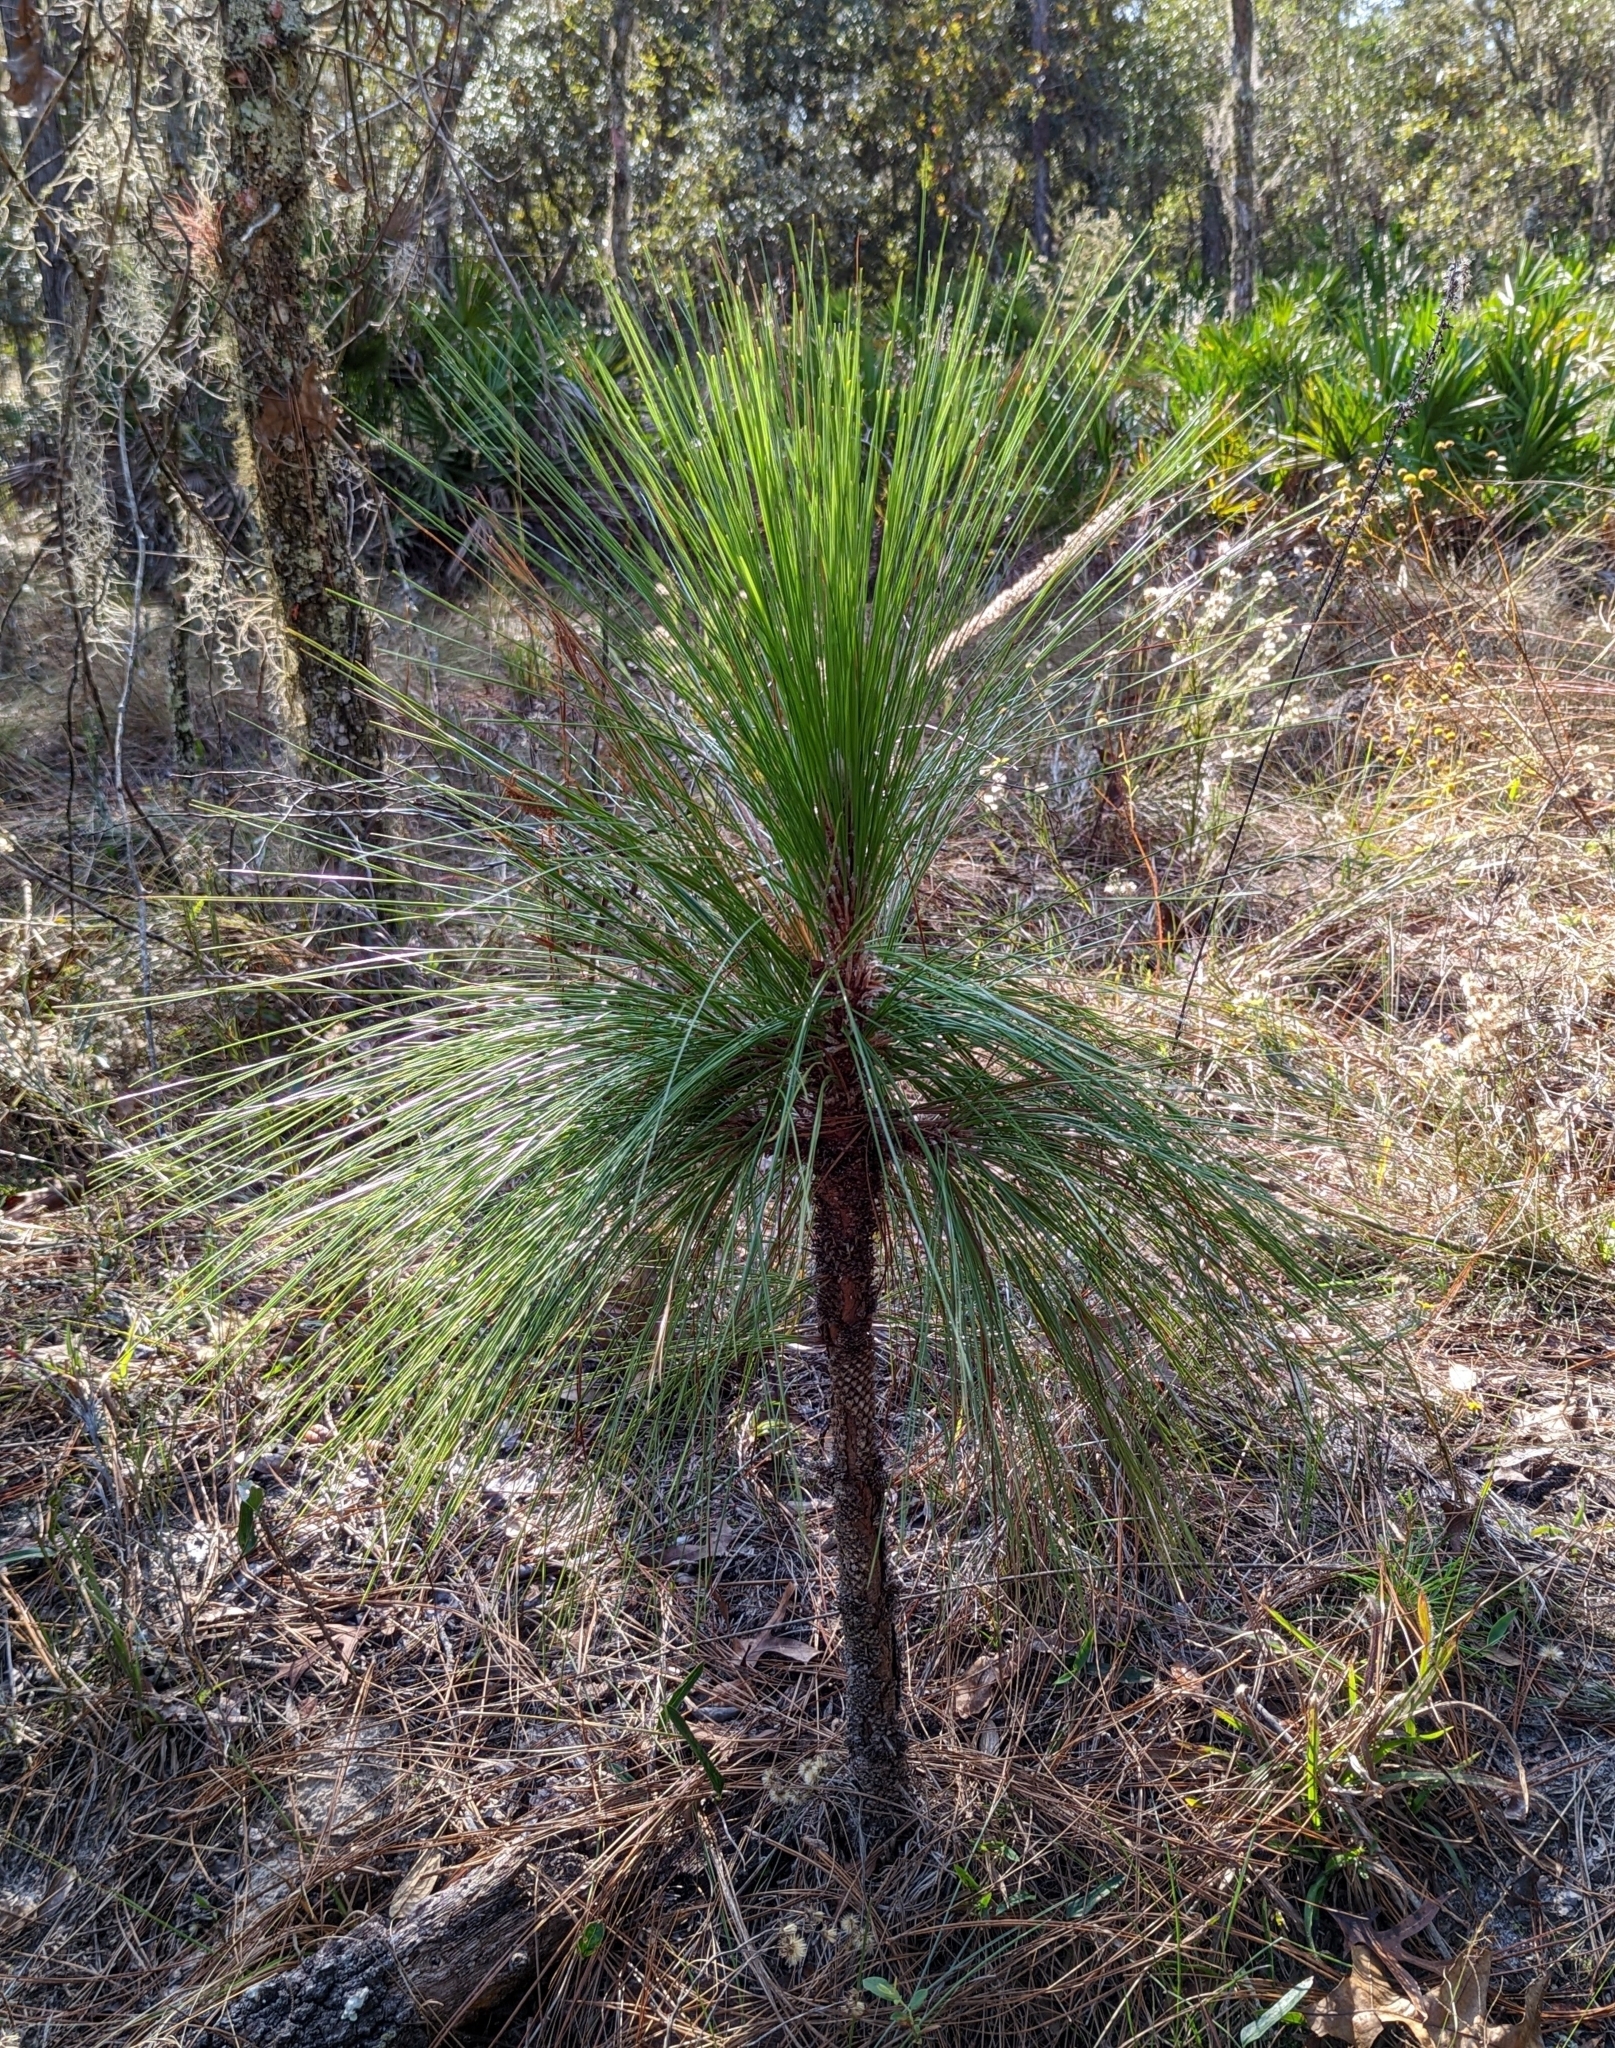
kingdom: Plantae
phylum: Tracheophyta
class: Pinopsida
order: Pinales
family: Pinaceae
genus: Pinus
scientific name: Pinus palustris
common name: Longleaf pine
